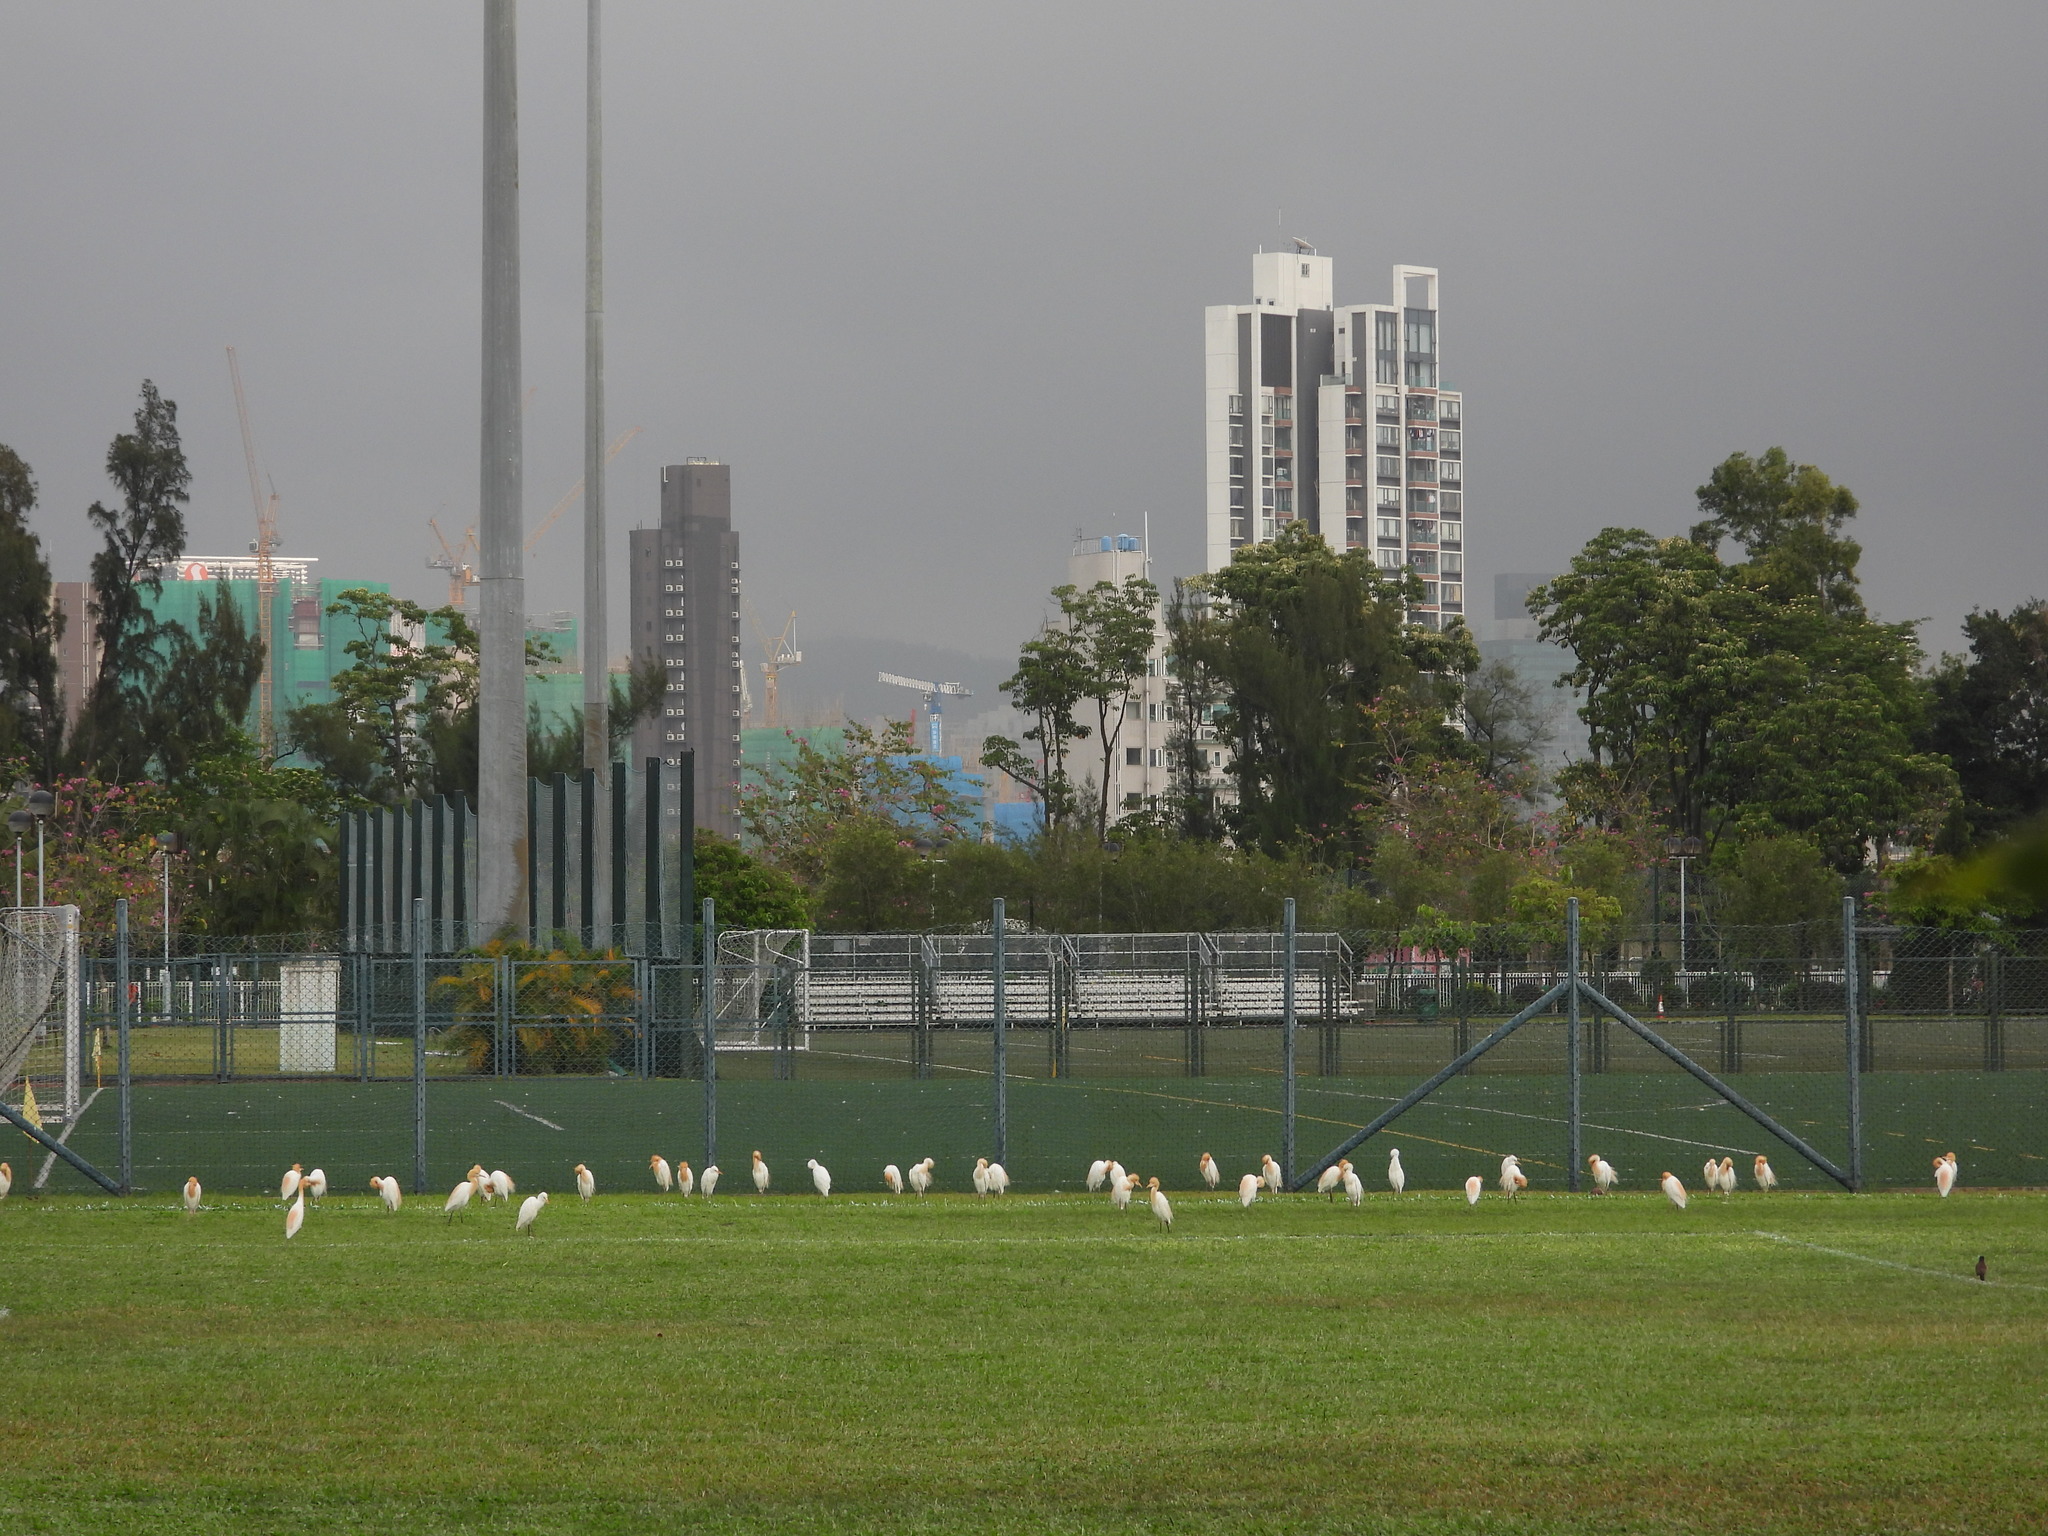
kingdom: Animalia
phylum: Chordata
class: Aves
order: Pelecaniformes
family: Ardeidae
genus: Bubulcus
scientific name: Bubulcus coromandus
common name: Eastern cattle egret
